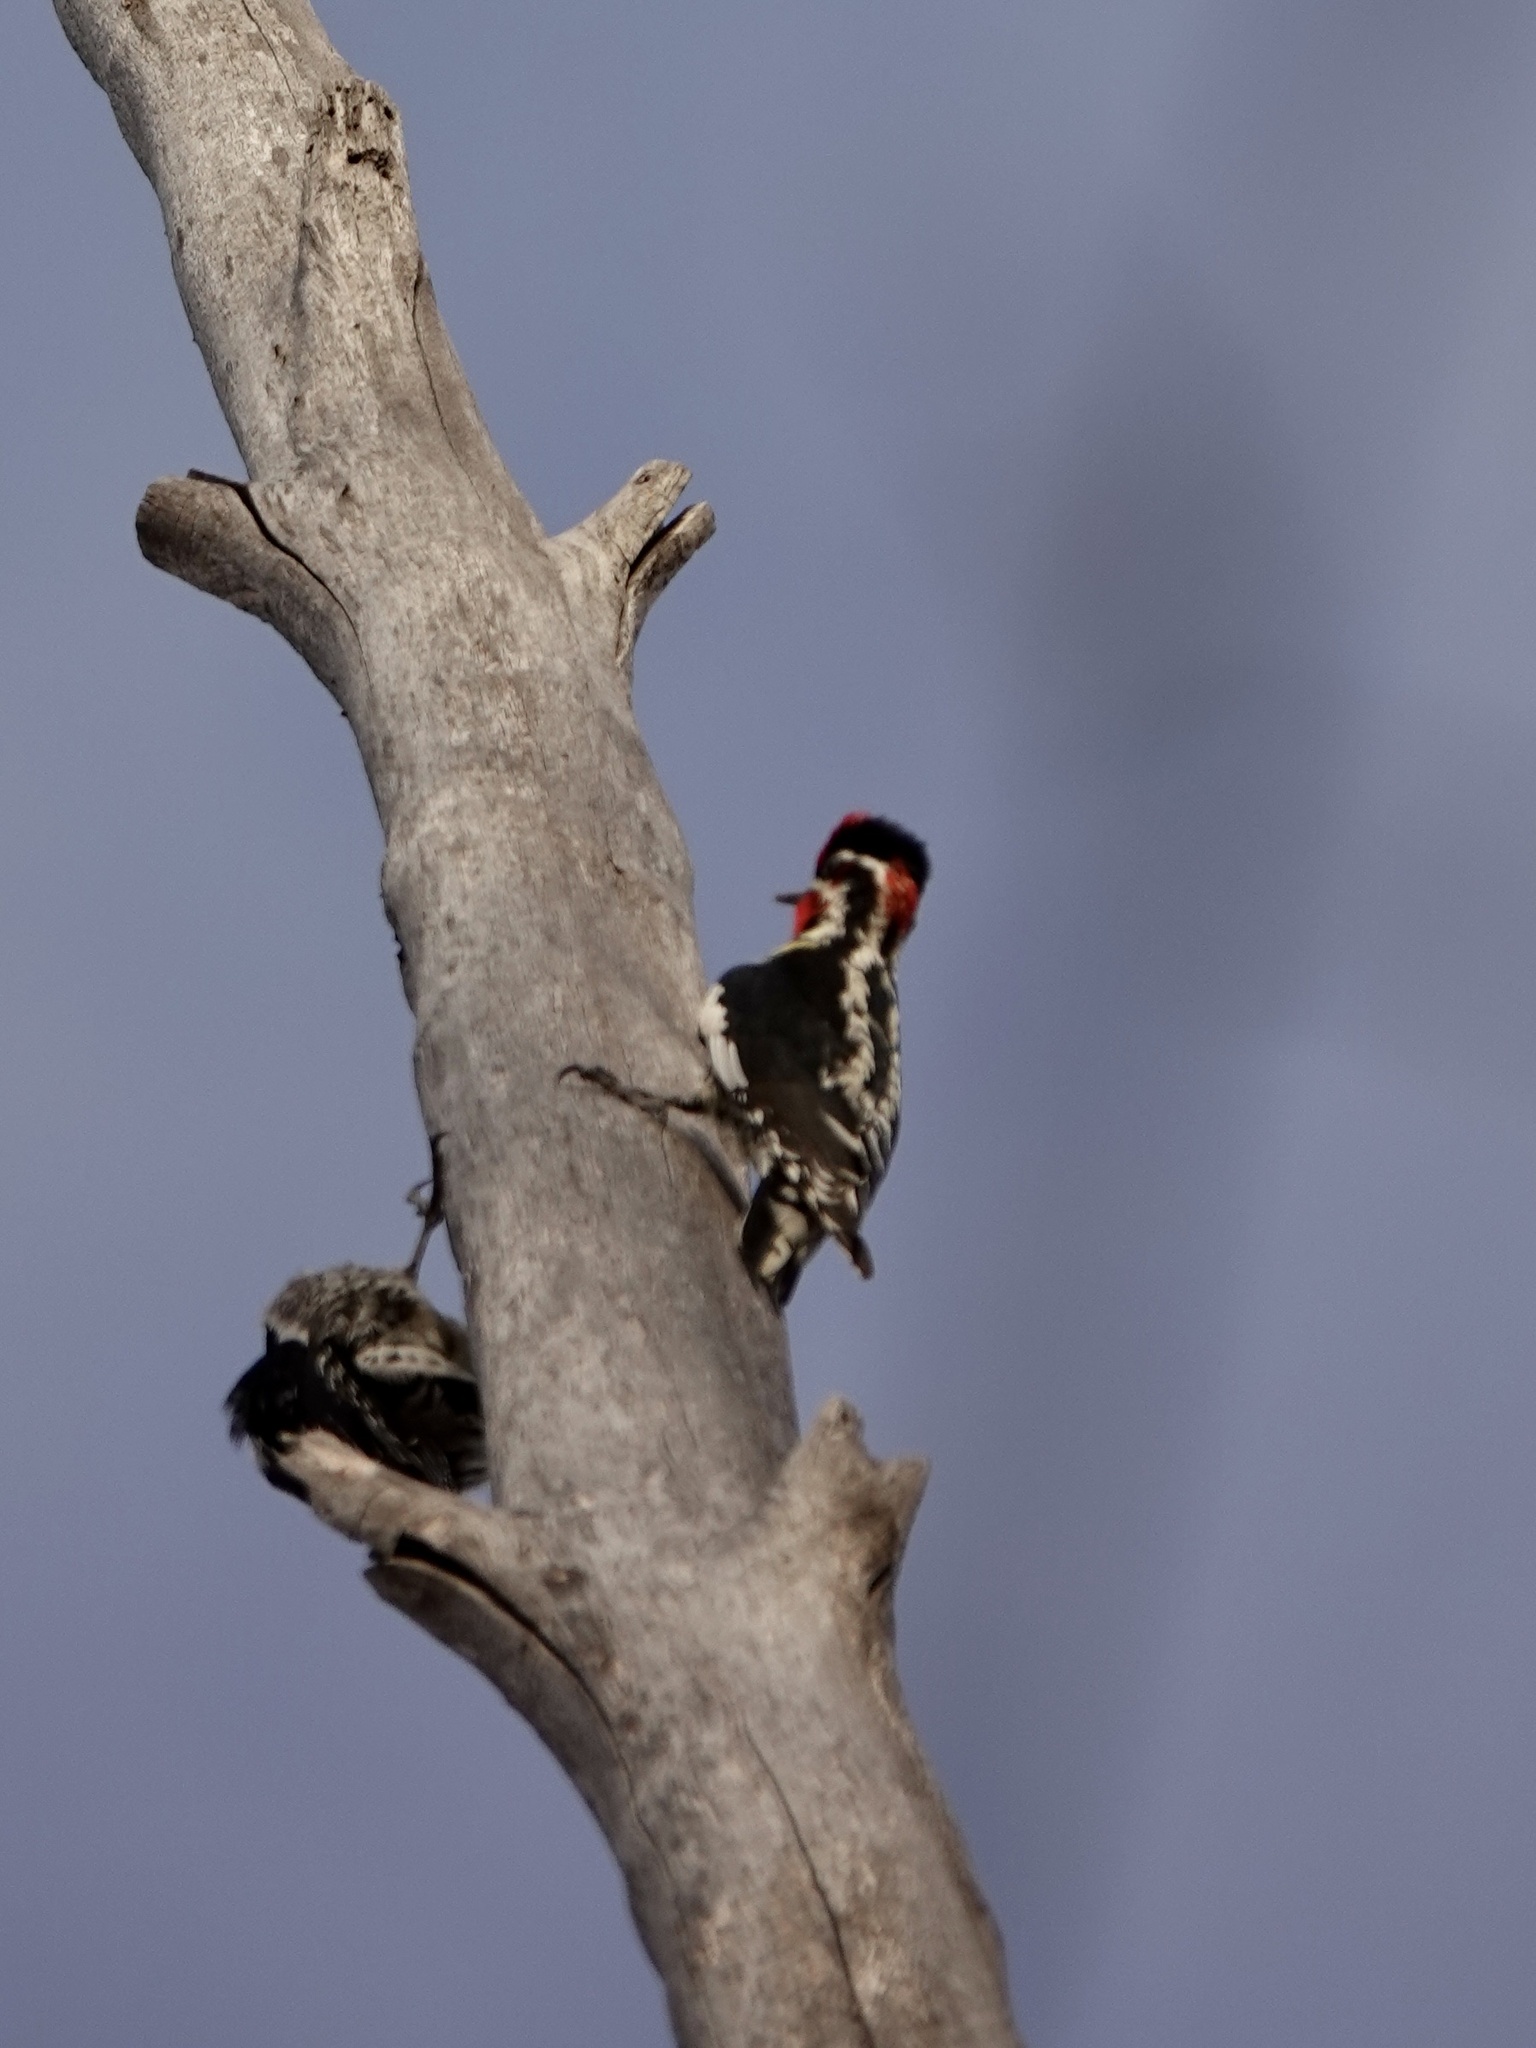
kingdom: Animalia
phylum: Chordata
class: Aves
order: Piciformes
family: Picidae
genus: Sphyrapicus
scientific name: Sphyrapicus nuchalis
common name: Red-naped sapsucker
